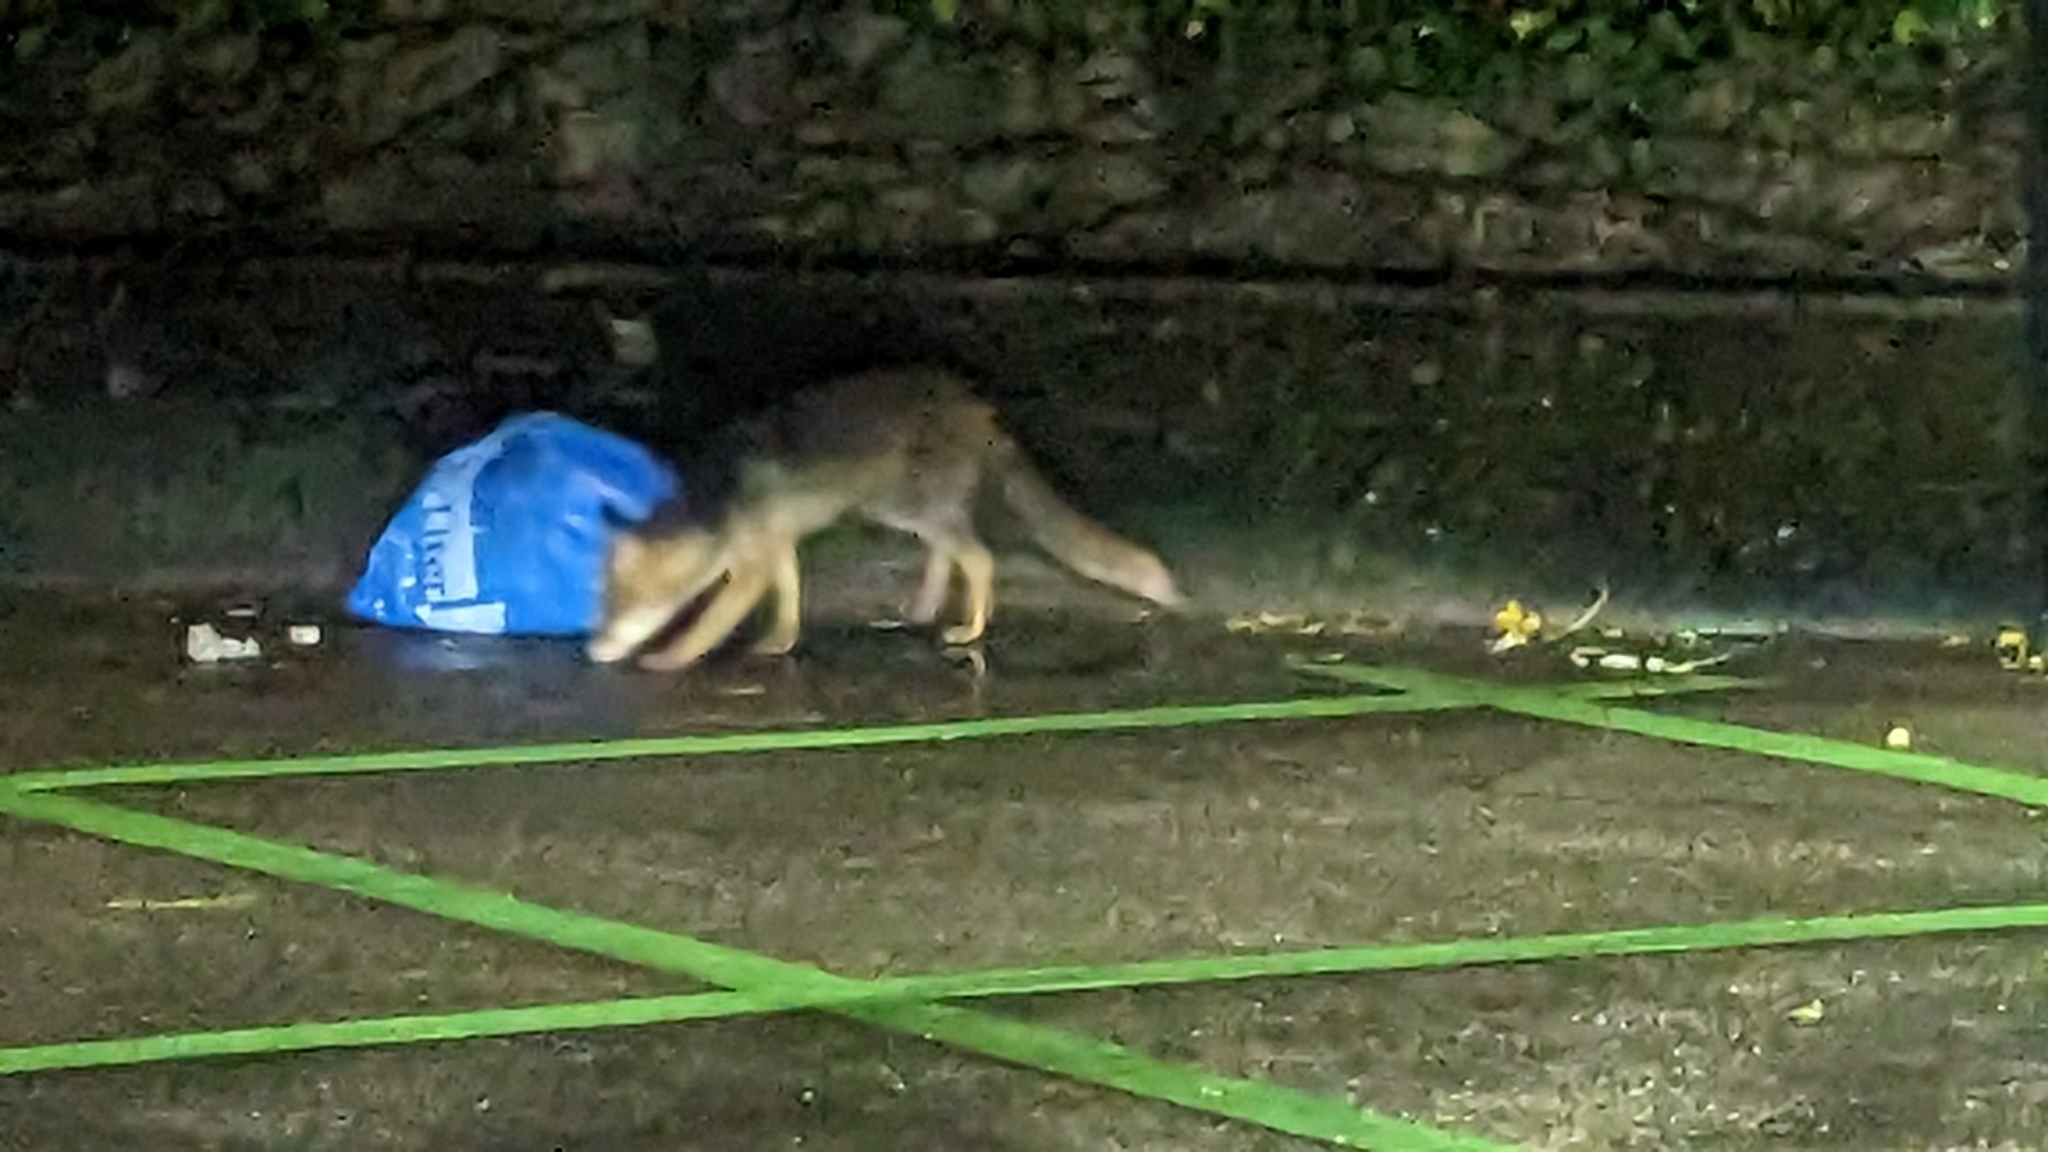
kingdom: Animalia
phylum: Chordata
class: Mammalia
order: Carnivora
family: Canidae
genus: Vulpes
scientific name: Vulpes vulpes
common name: Red fox
